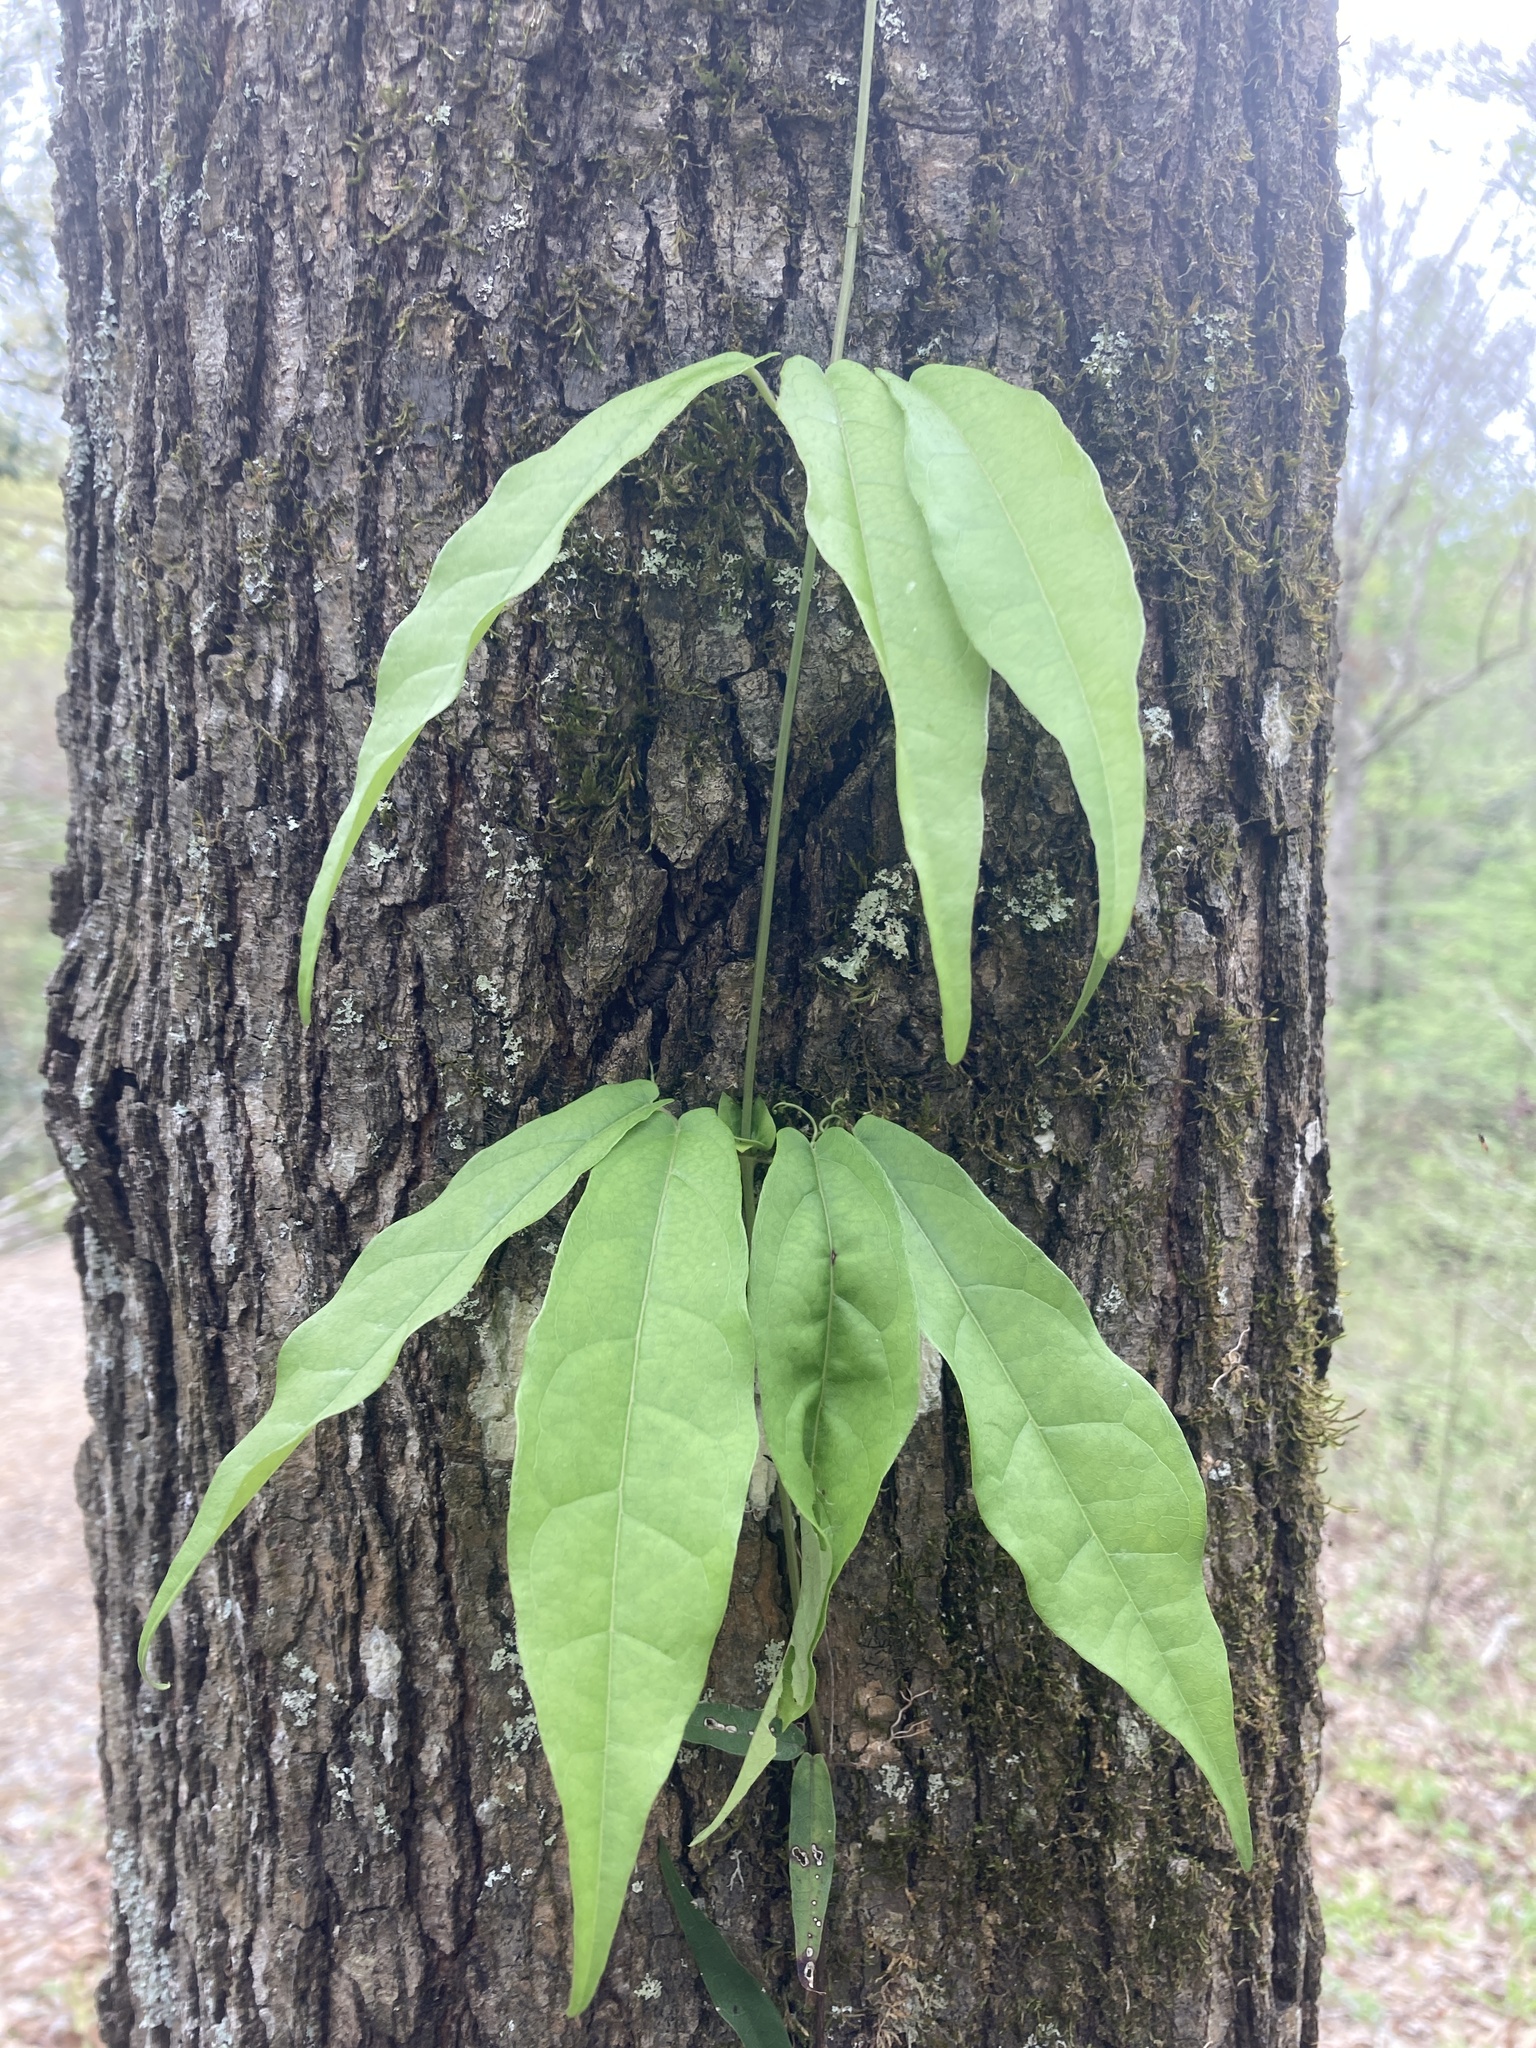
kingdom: Plantae
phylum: Tracheophyta
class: Magnoliopsida
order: Lamiales
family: Bignoniaceae
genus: Bignonia
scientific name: Bignonia capreolata
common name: Crossvine
